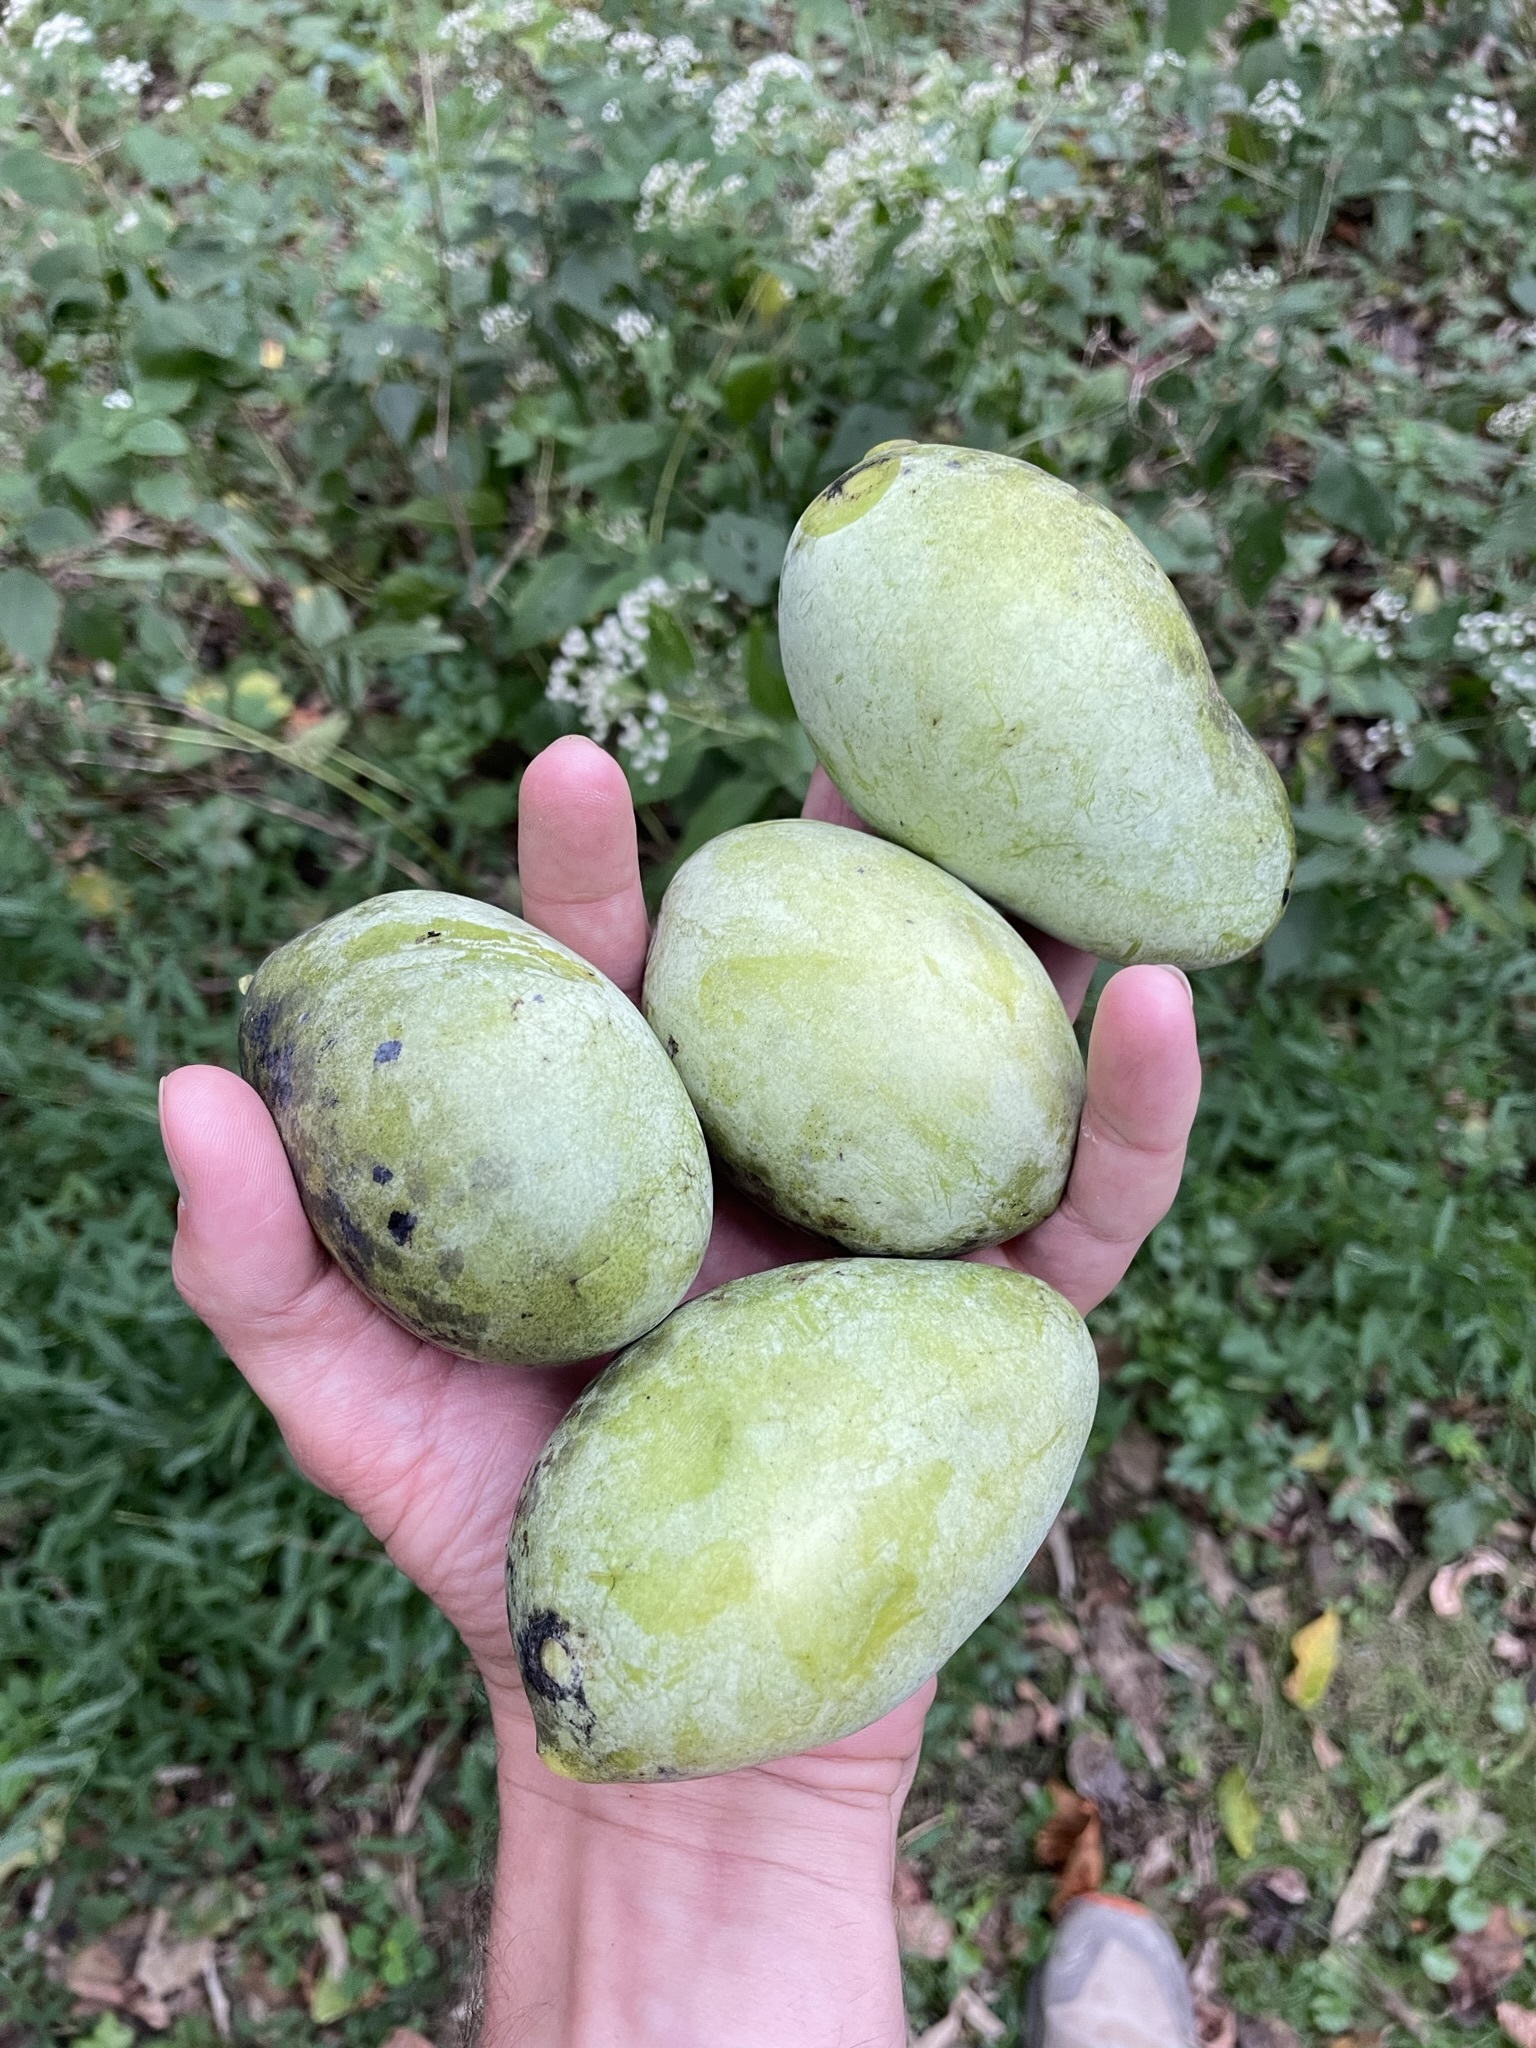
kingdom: Plantae
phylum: Tracheophyta
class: Magnoliopsida
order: Magnoliales
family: Annonaceae
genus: Asimina
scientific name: Asimina triloba
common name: Dog-banana
